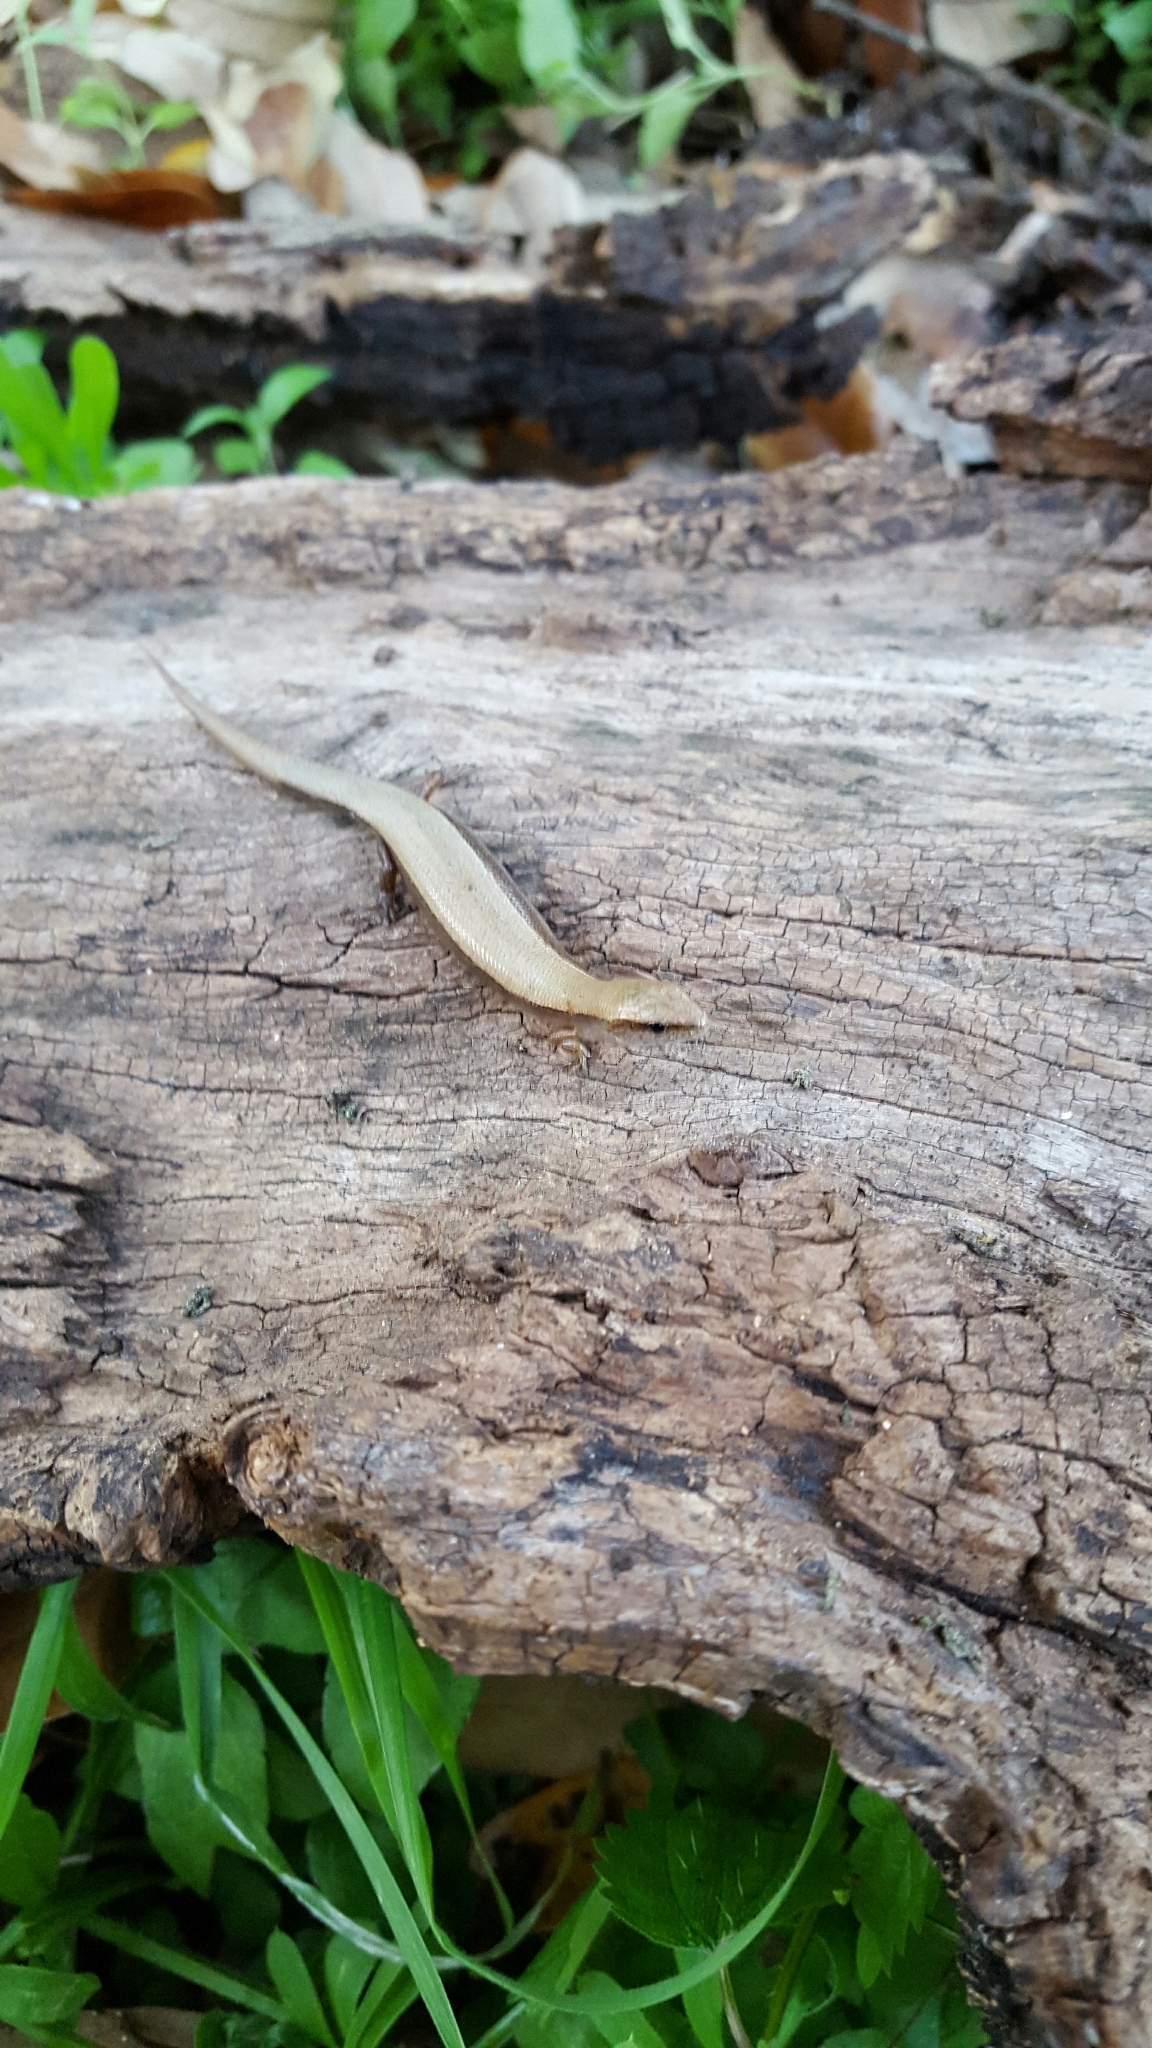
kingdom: Animalia
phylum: Chordata
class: Squamata
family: Scincidae
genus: Scincella
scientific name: Scincella lateralis
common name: Ground skink
